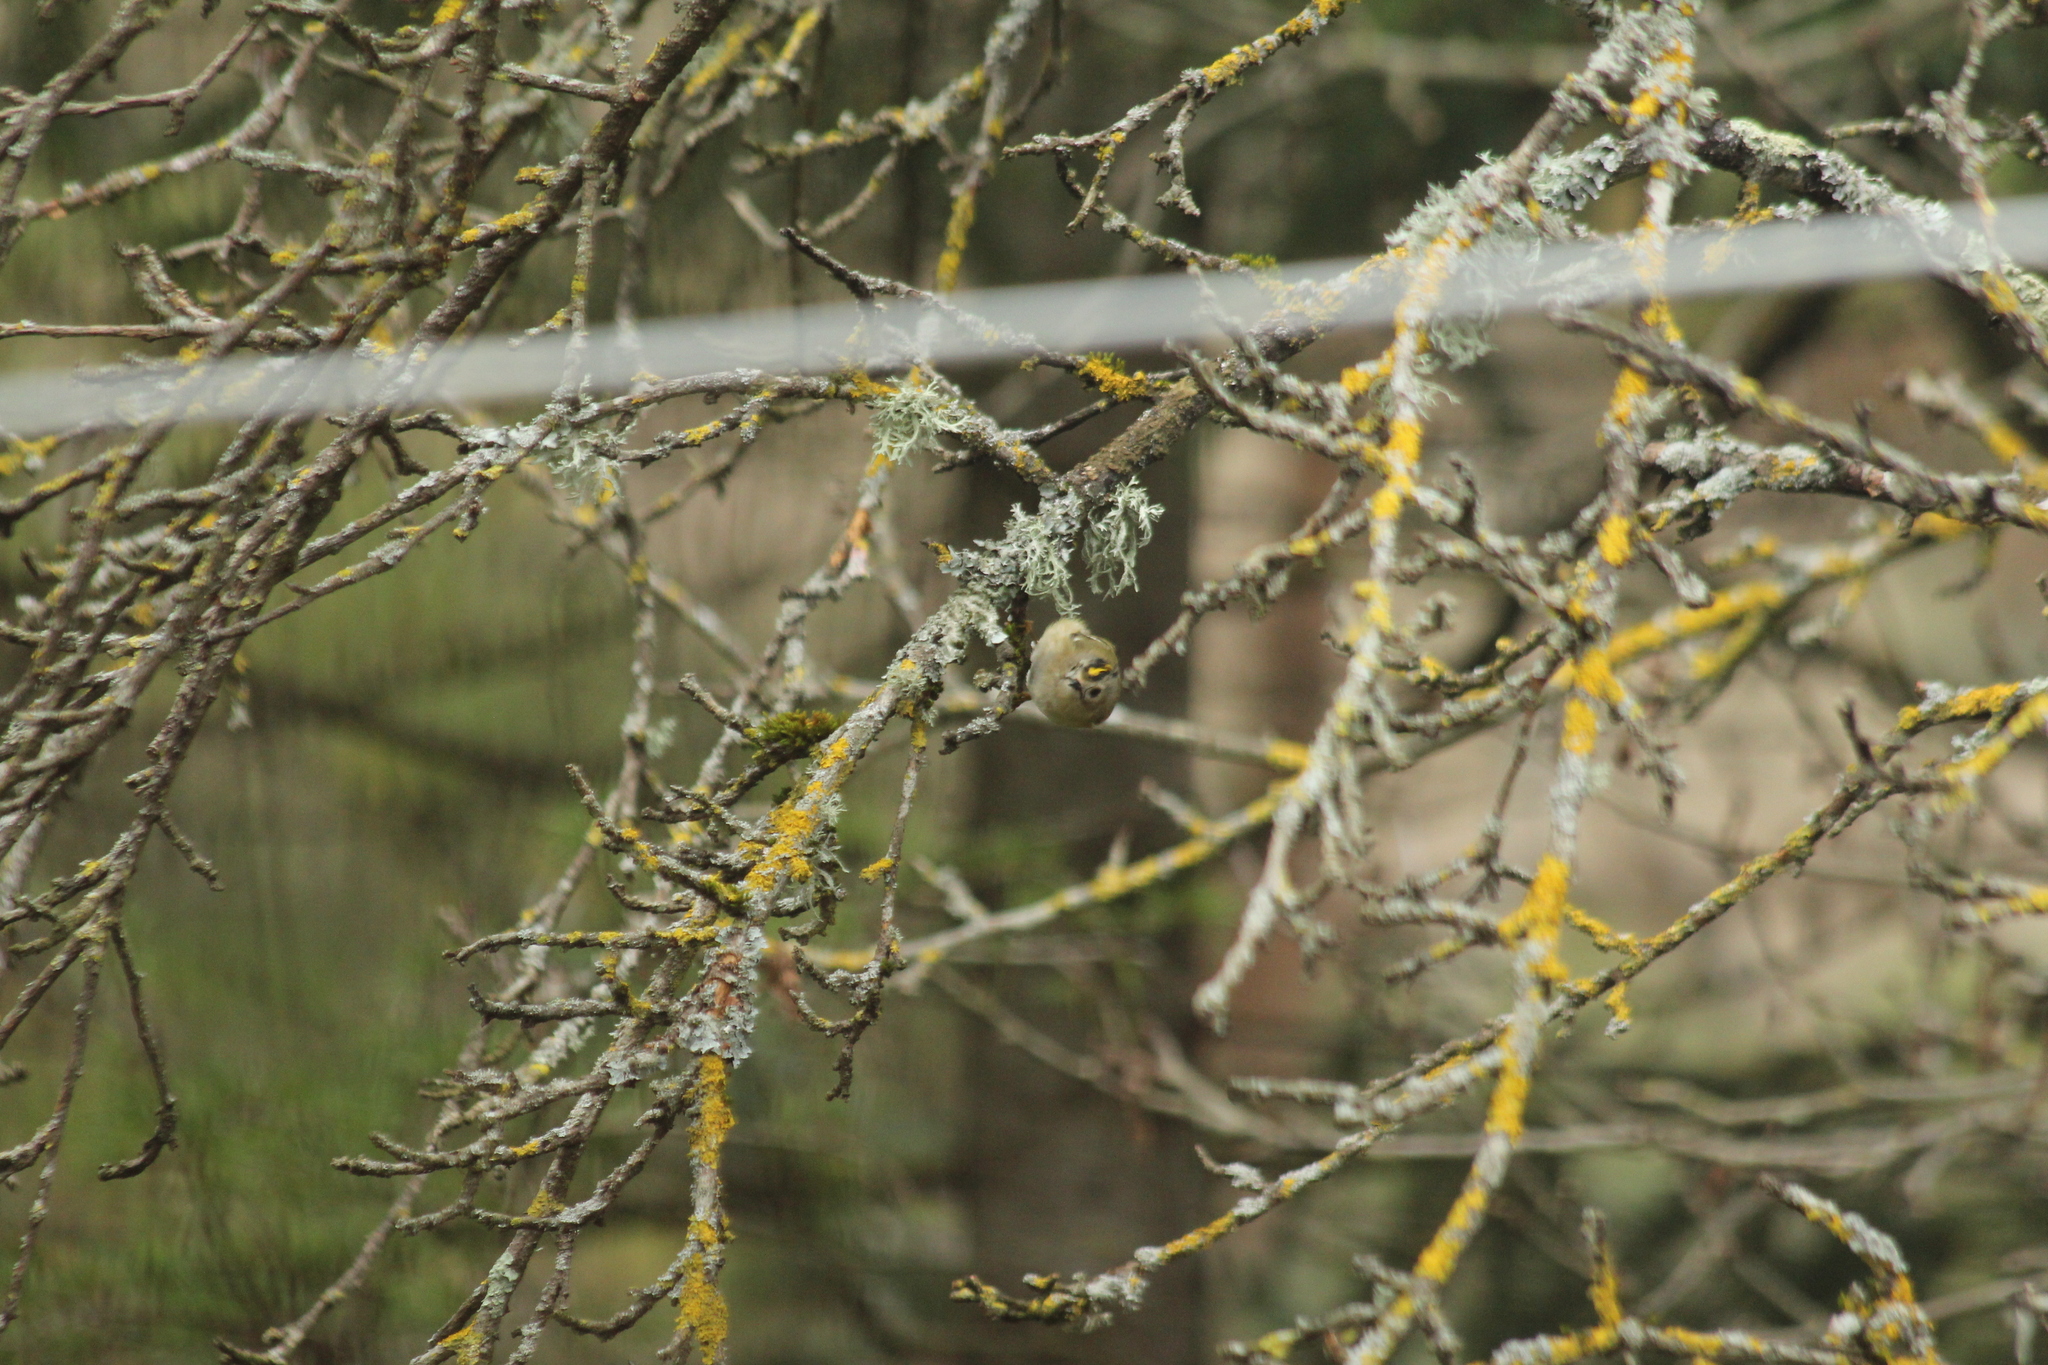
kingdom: Animalia
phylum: Chordata
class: Aves
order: Passeriformes
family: Regulidae
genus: Regulus
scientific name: Regulus regulus
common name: Goldcrest
